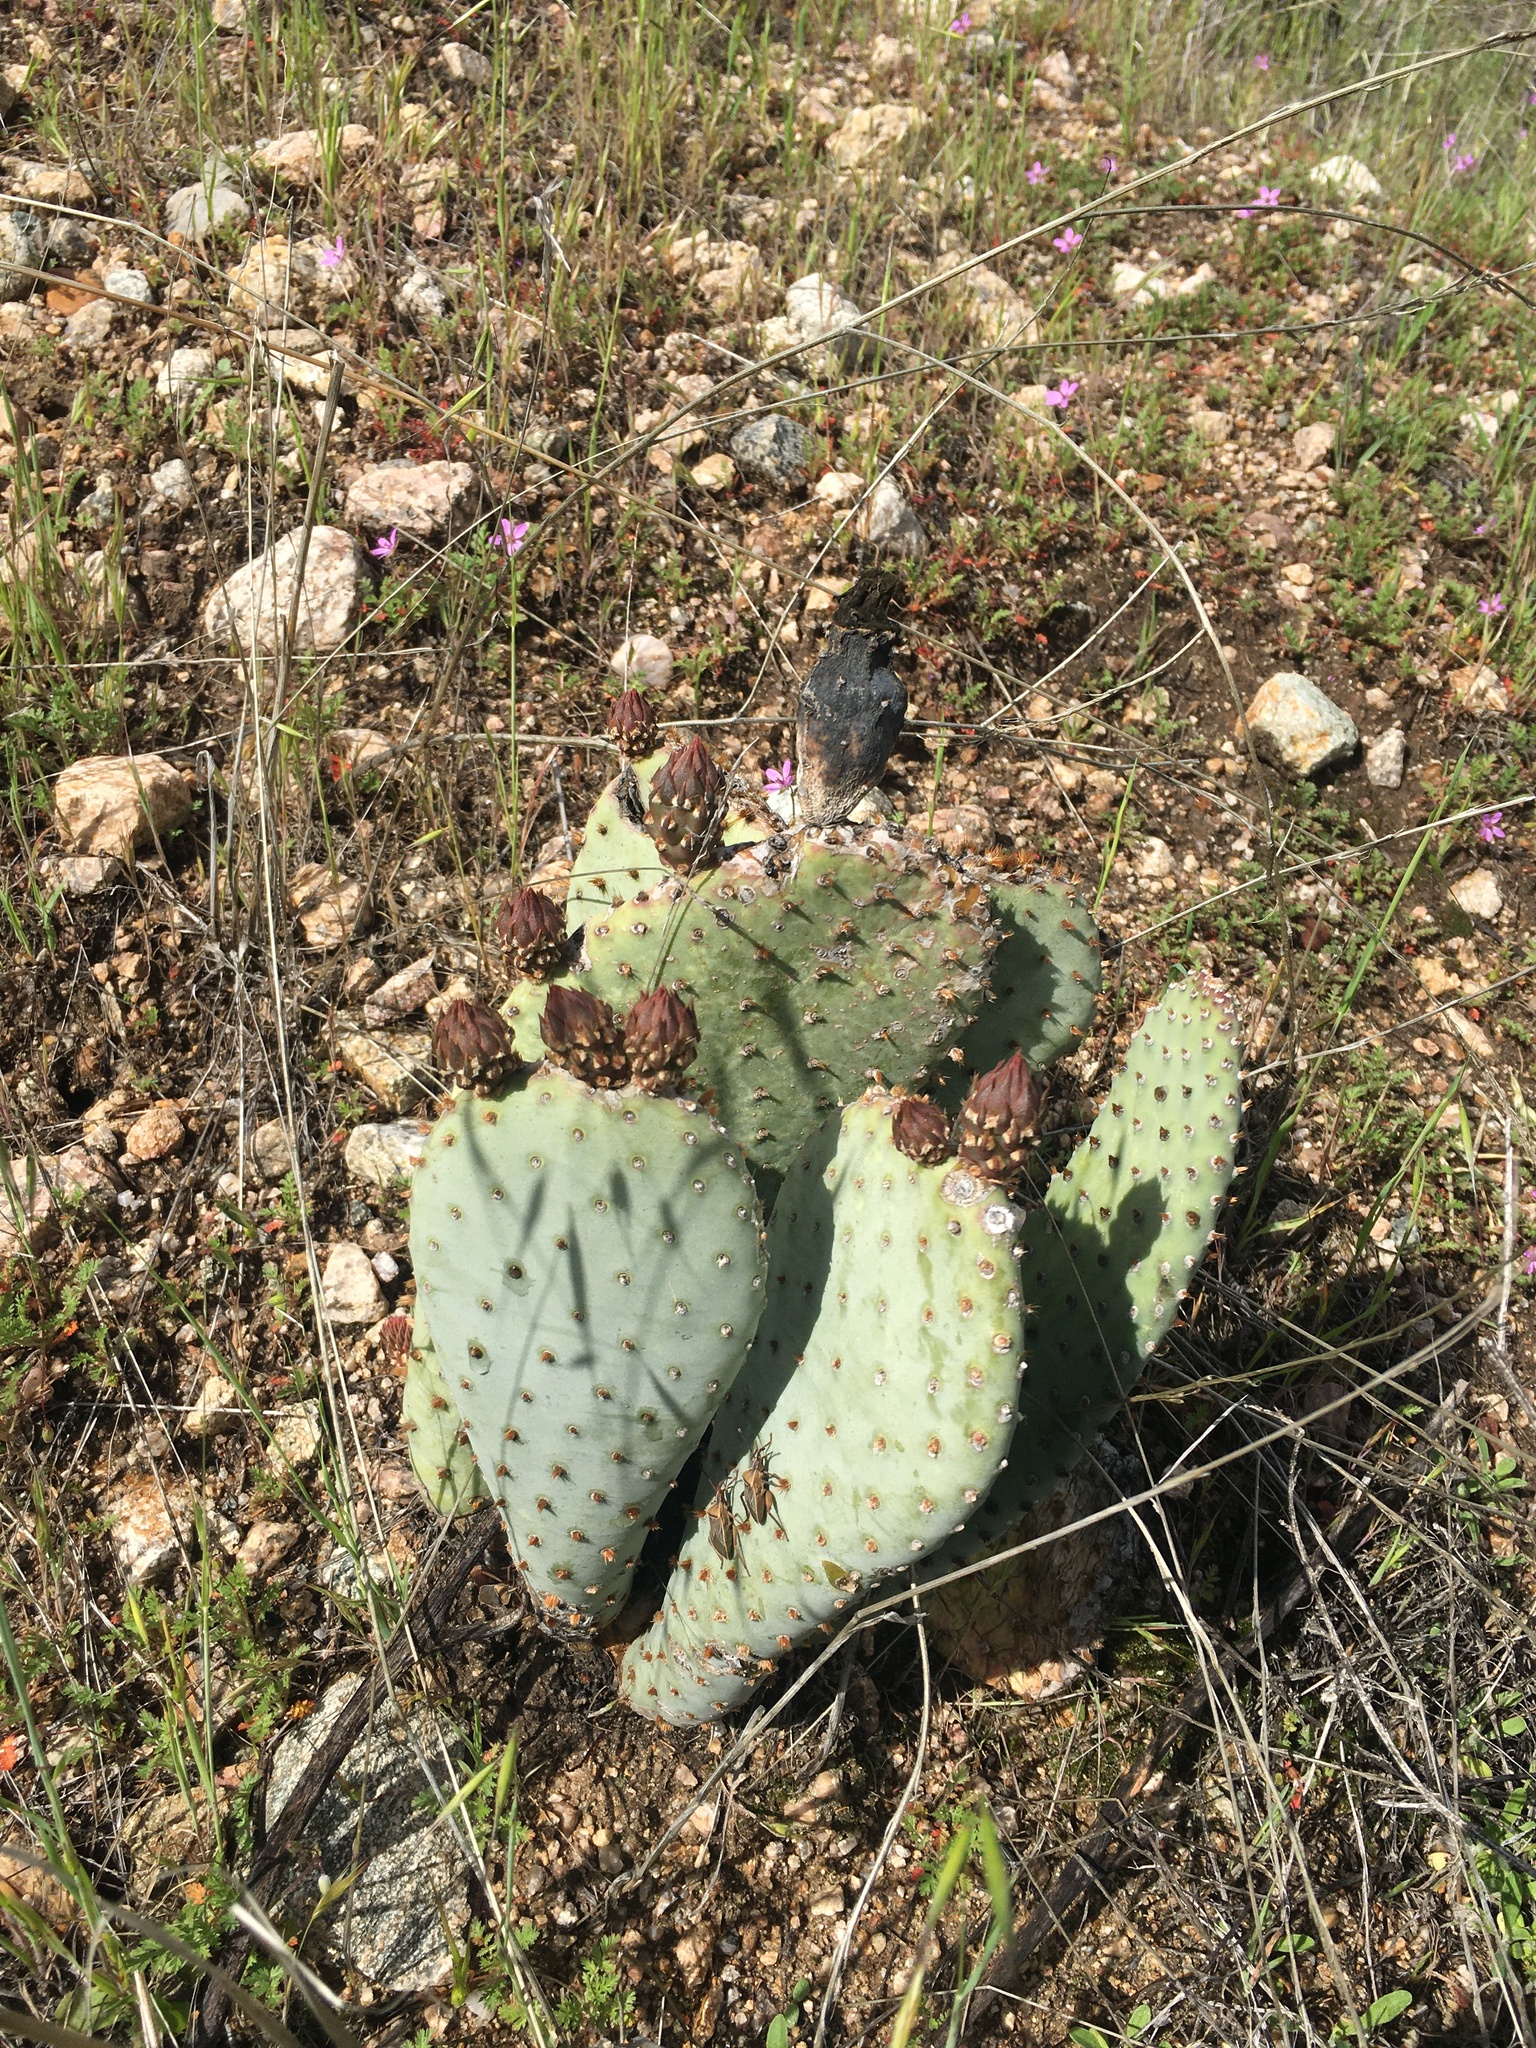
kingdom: Plantae
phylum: Tracheophyta
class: Magnoliopsida
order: Caryophyllales
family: Cactaceae
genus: Opuntia
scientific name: Opuntia basilaris
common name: Beavertail prickly-pear
